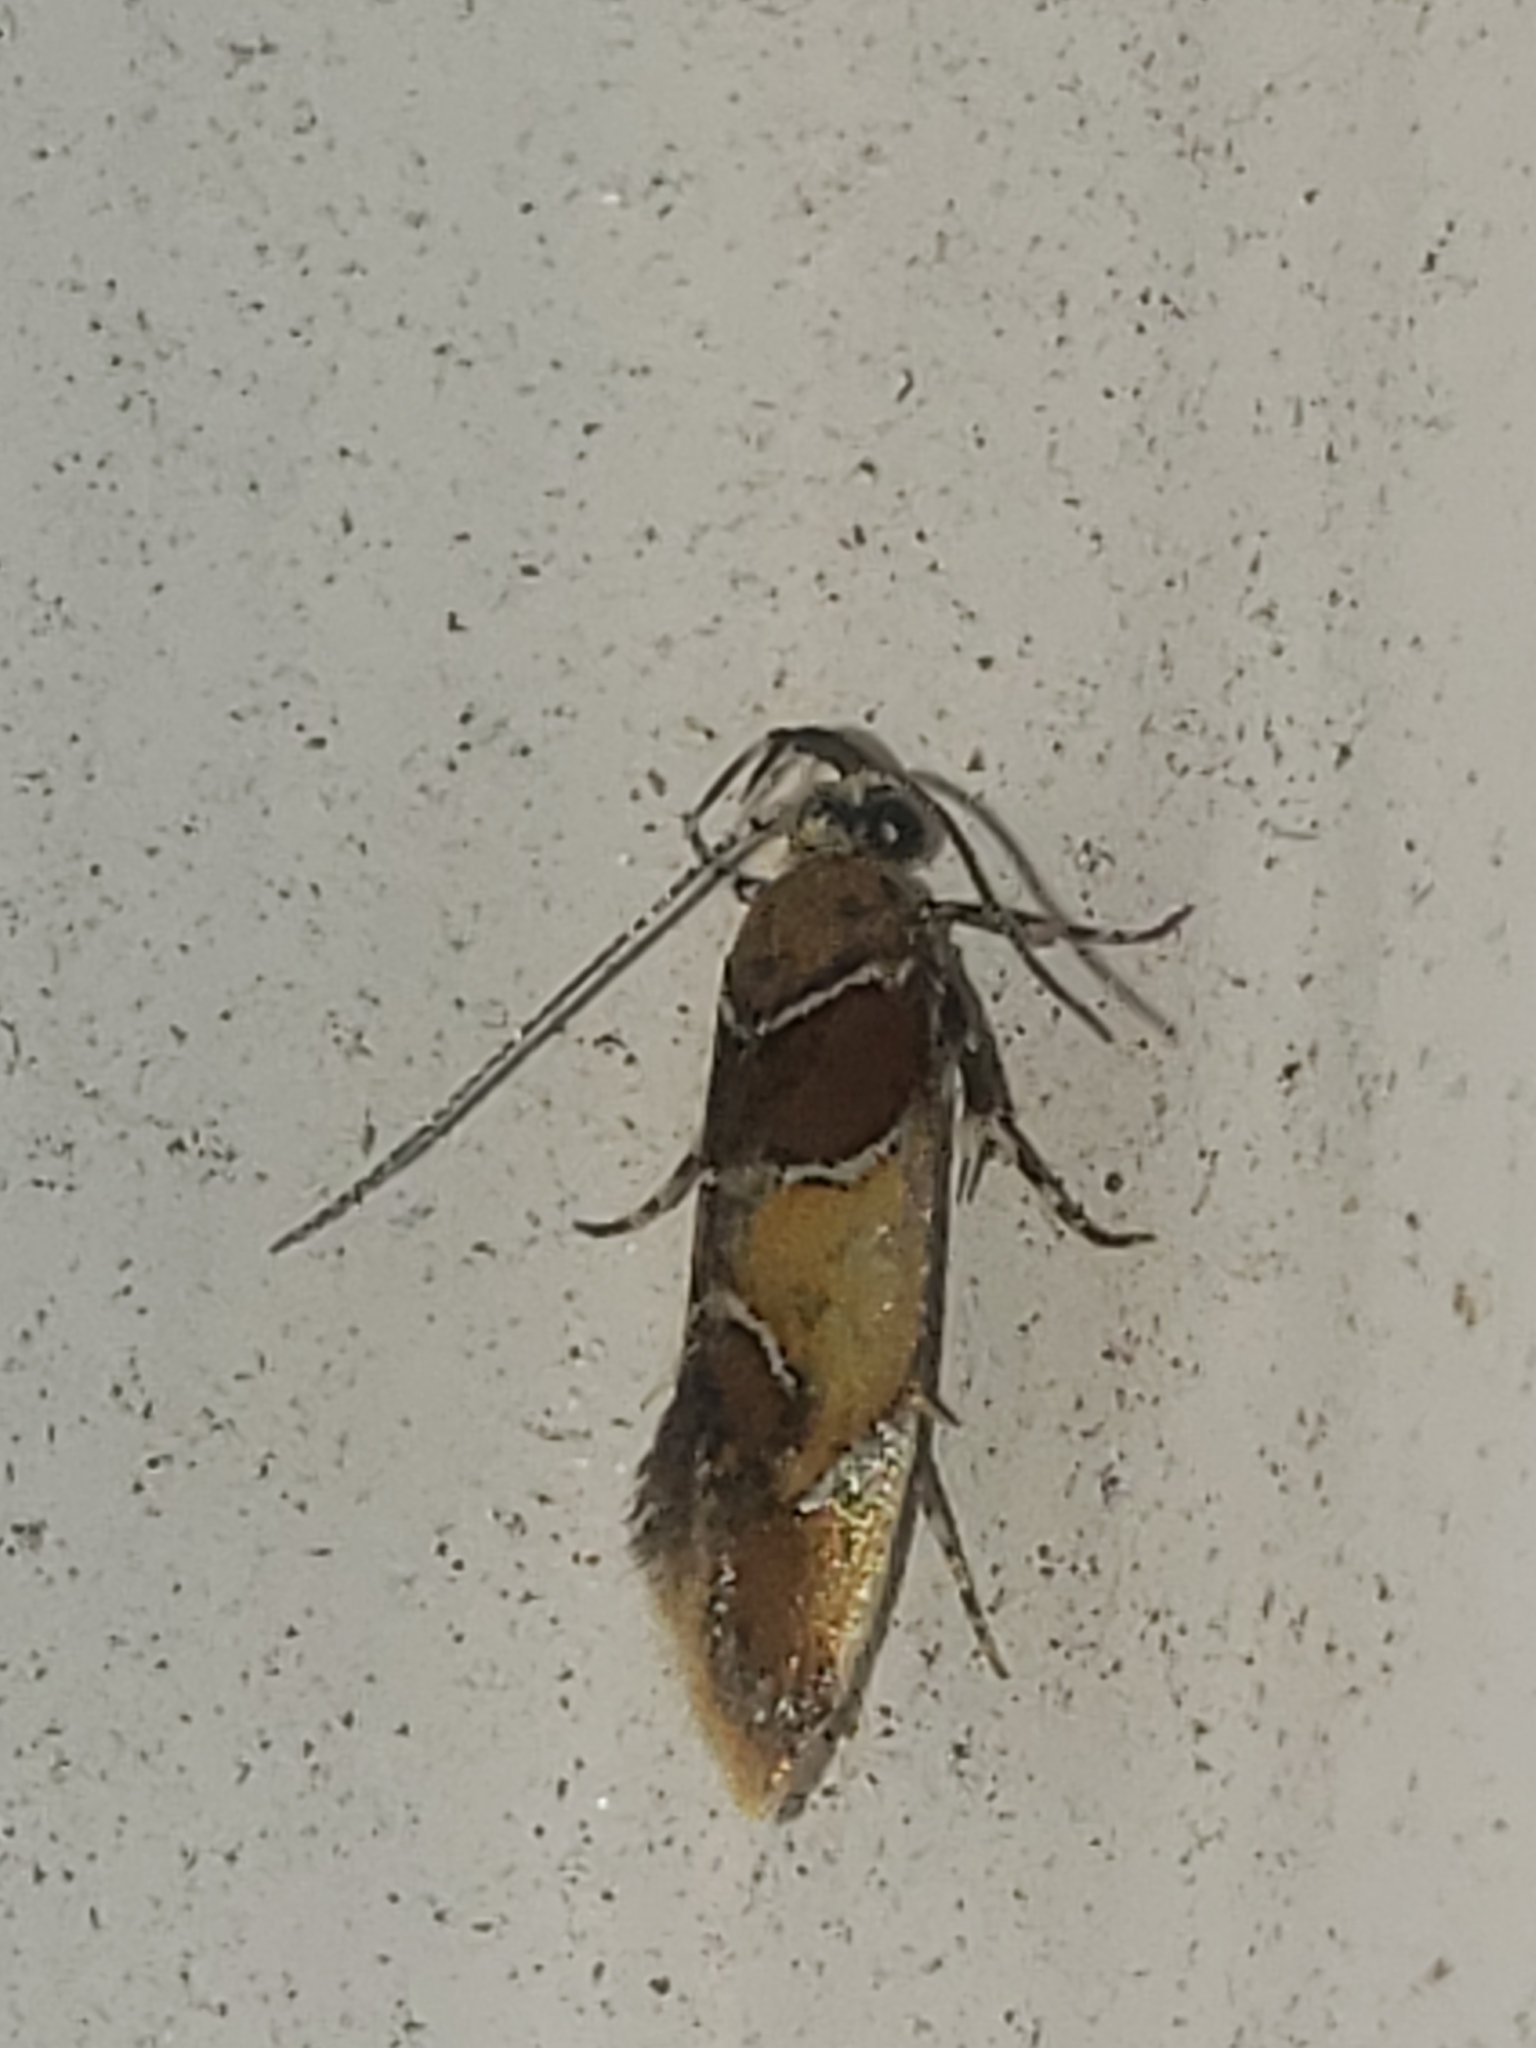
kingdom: Animalia
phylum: Arthropoda
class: Insecta
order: Lepidoptera
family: Oecophoridae
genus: Callima
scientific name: Callima argenticinctella
